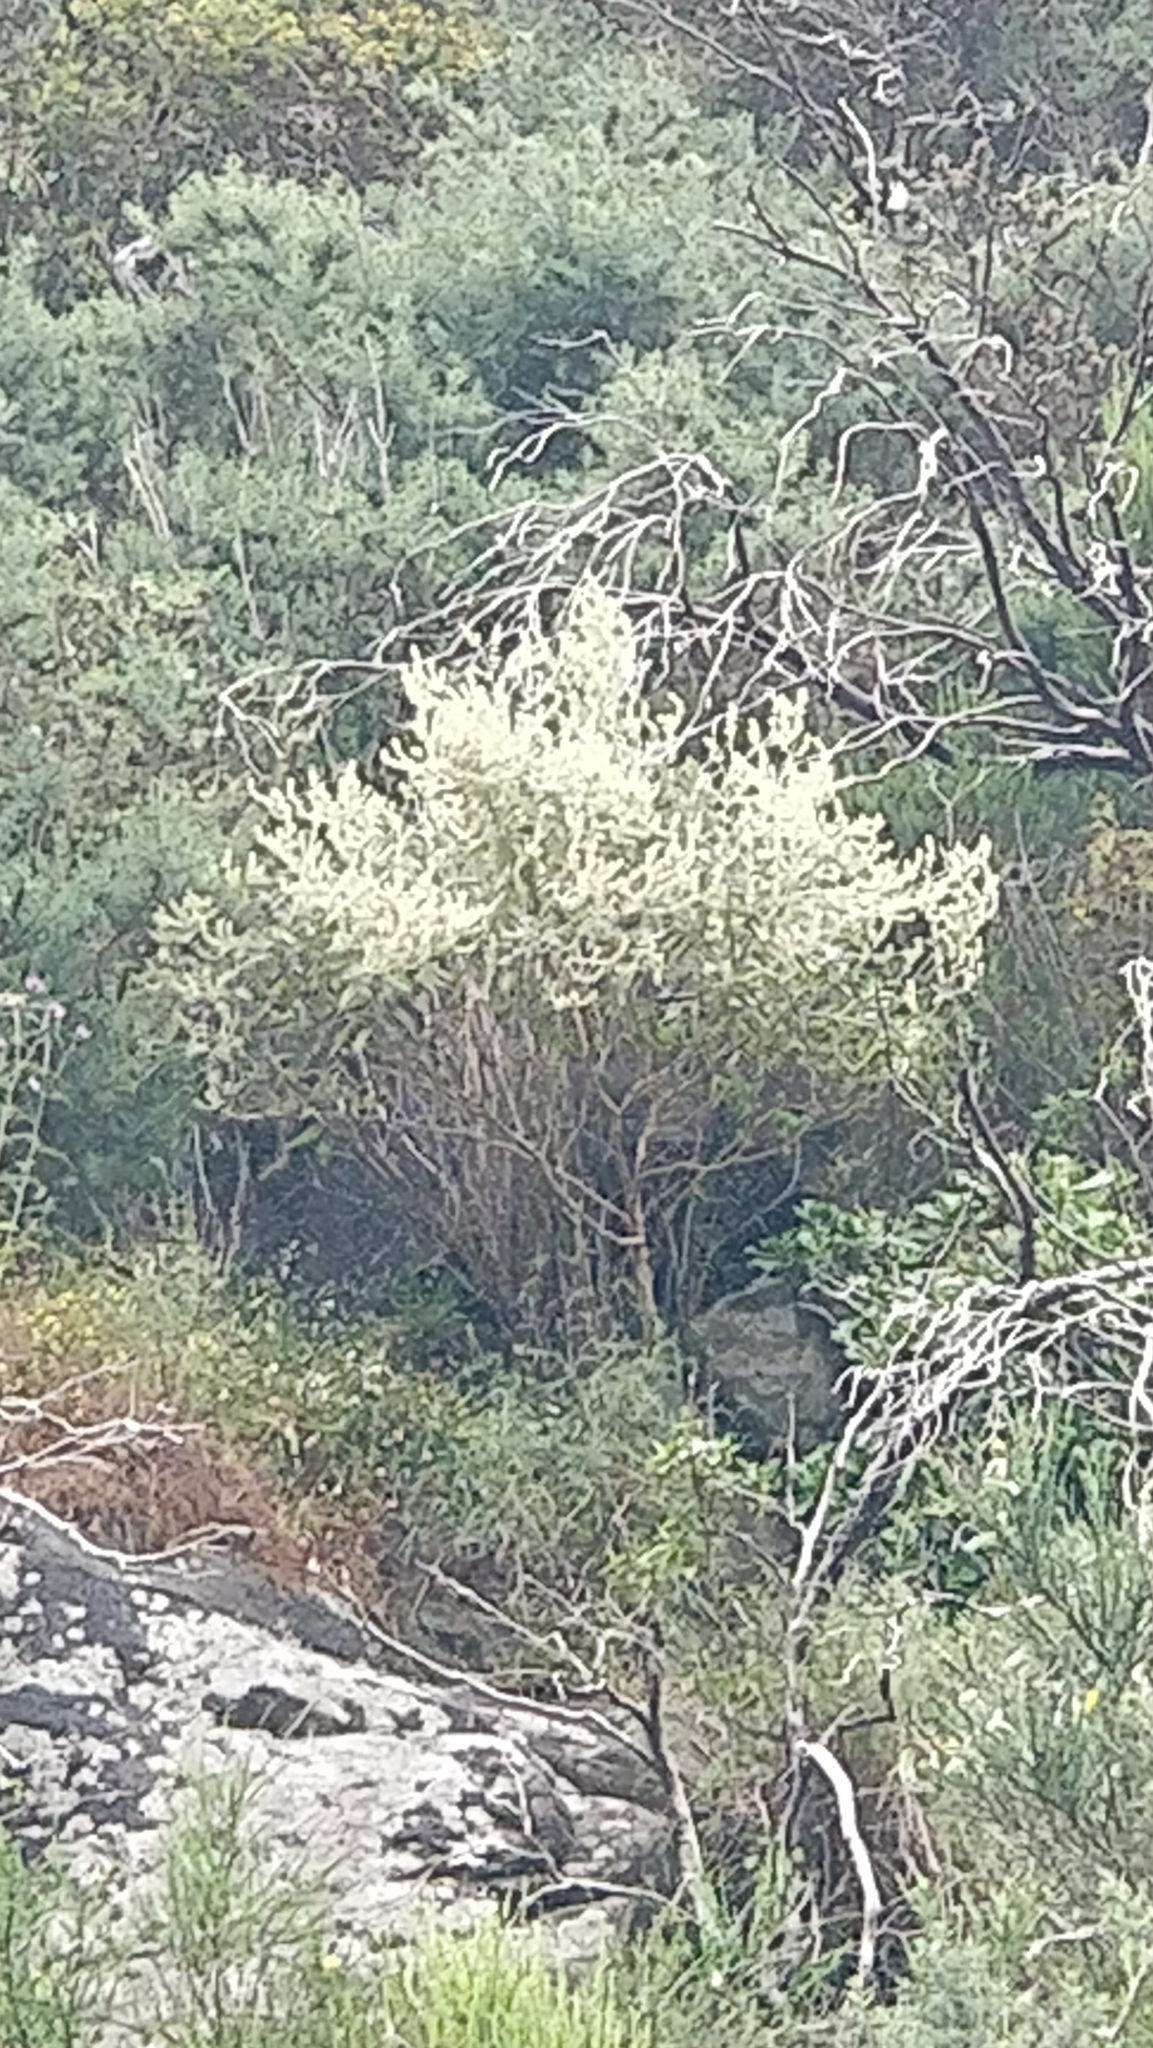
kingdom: Plantae
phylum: Tracheophyta
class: Magnoliopsida
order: Lamiales
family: Lamiaceae
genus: Sideritis
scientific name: Sideritis candicans
